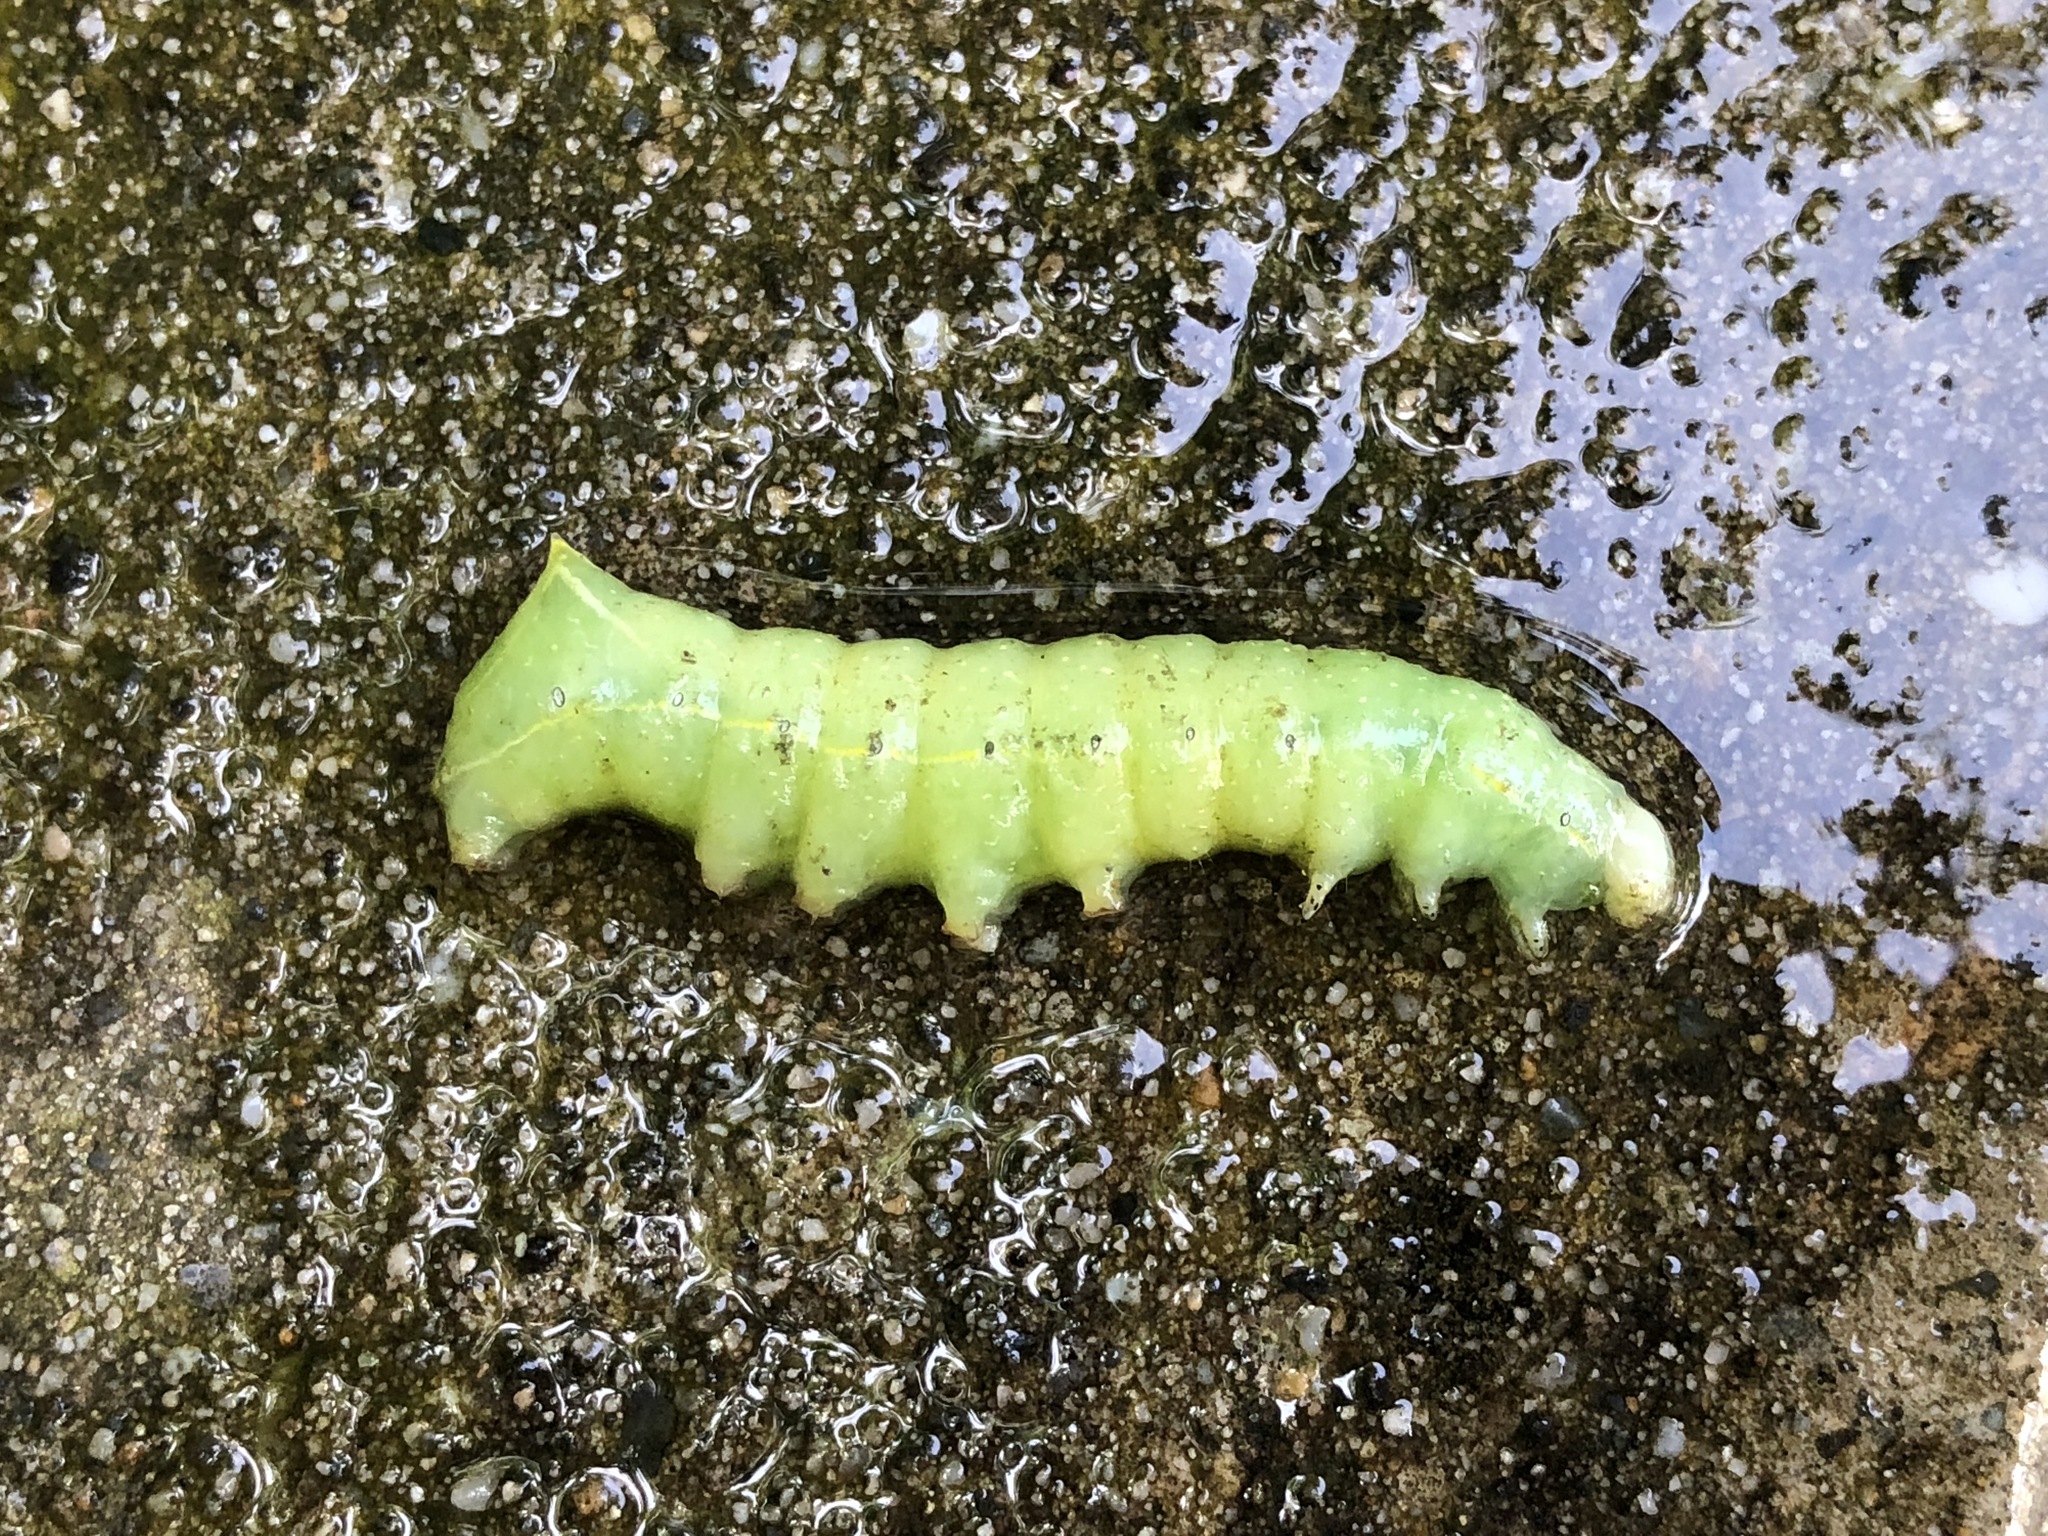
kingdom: Animalia
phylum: Arthropoda
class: Insecta
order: Lepidoptera
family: Noctuidae
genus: Amphipyra
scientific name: Amphipyra pyramidea
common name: Copper underwing
